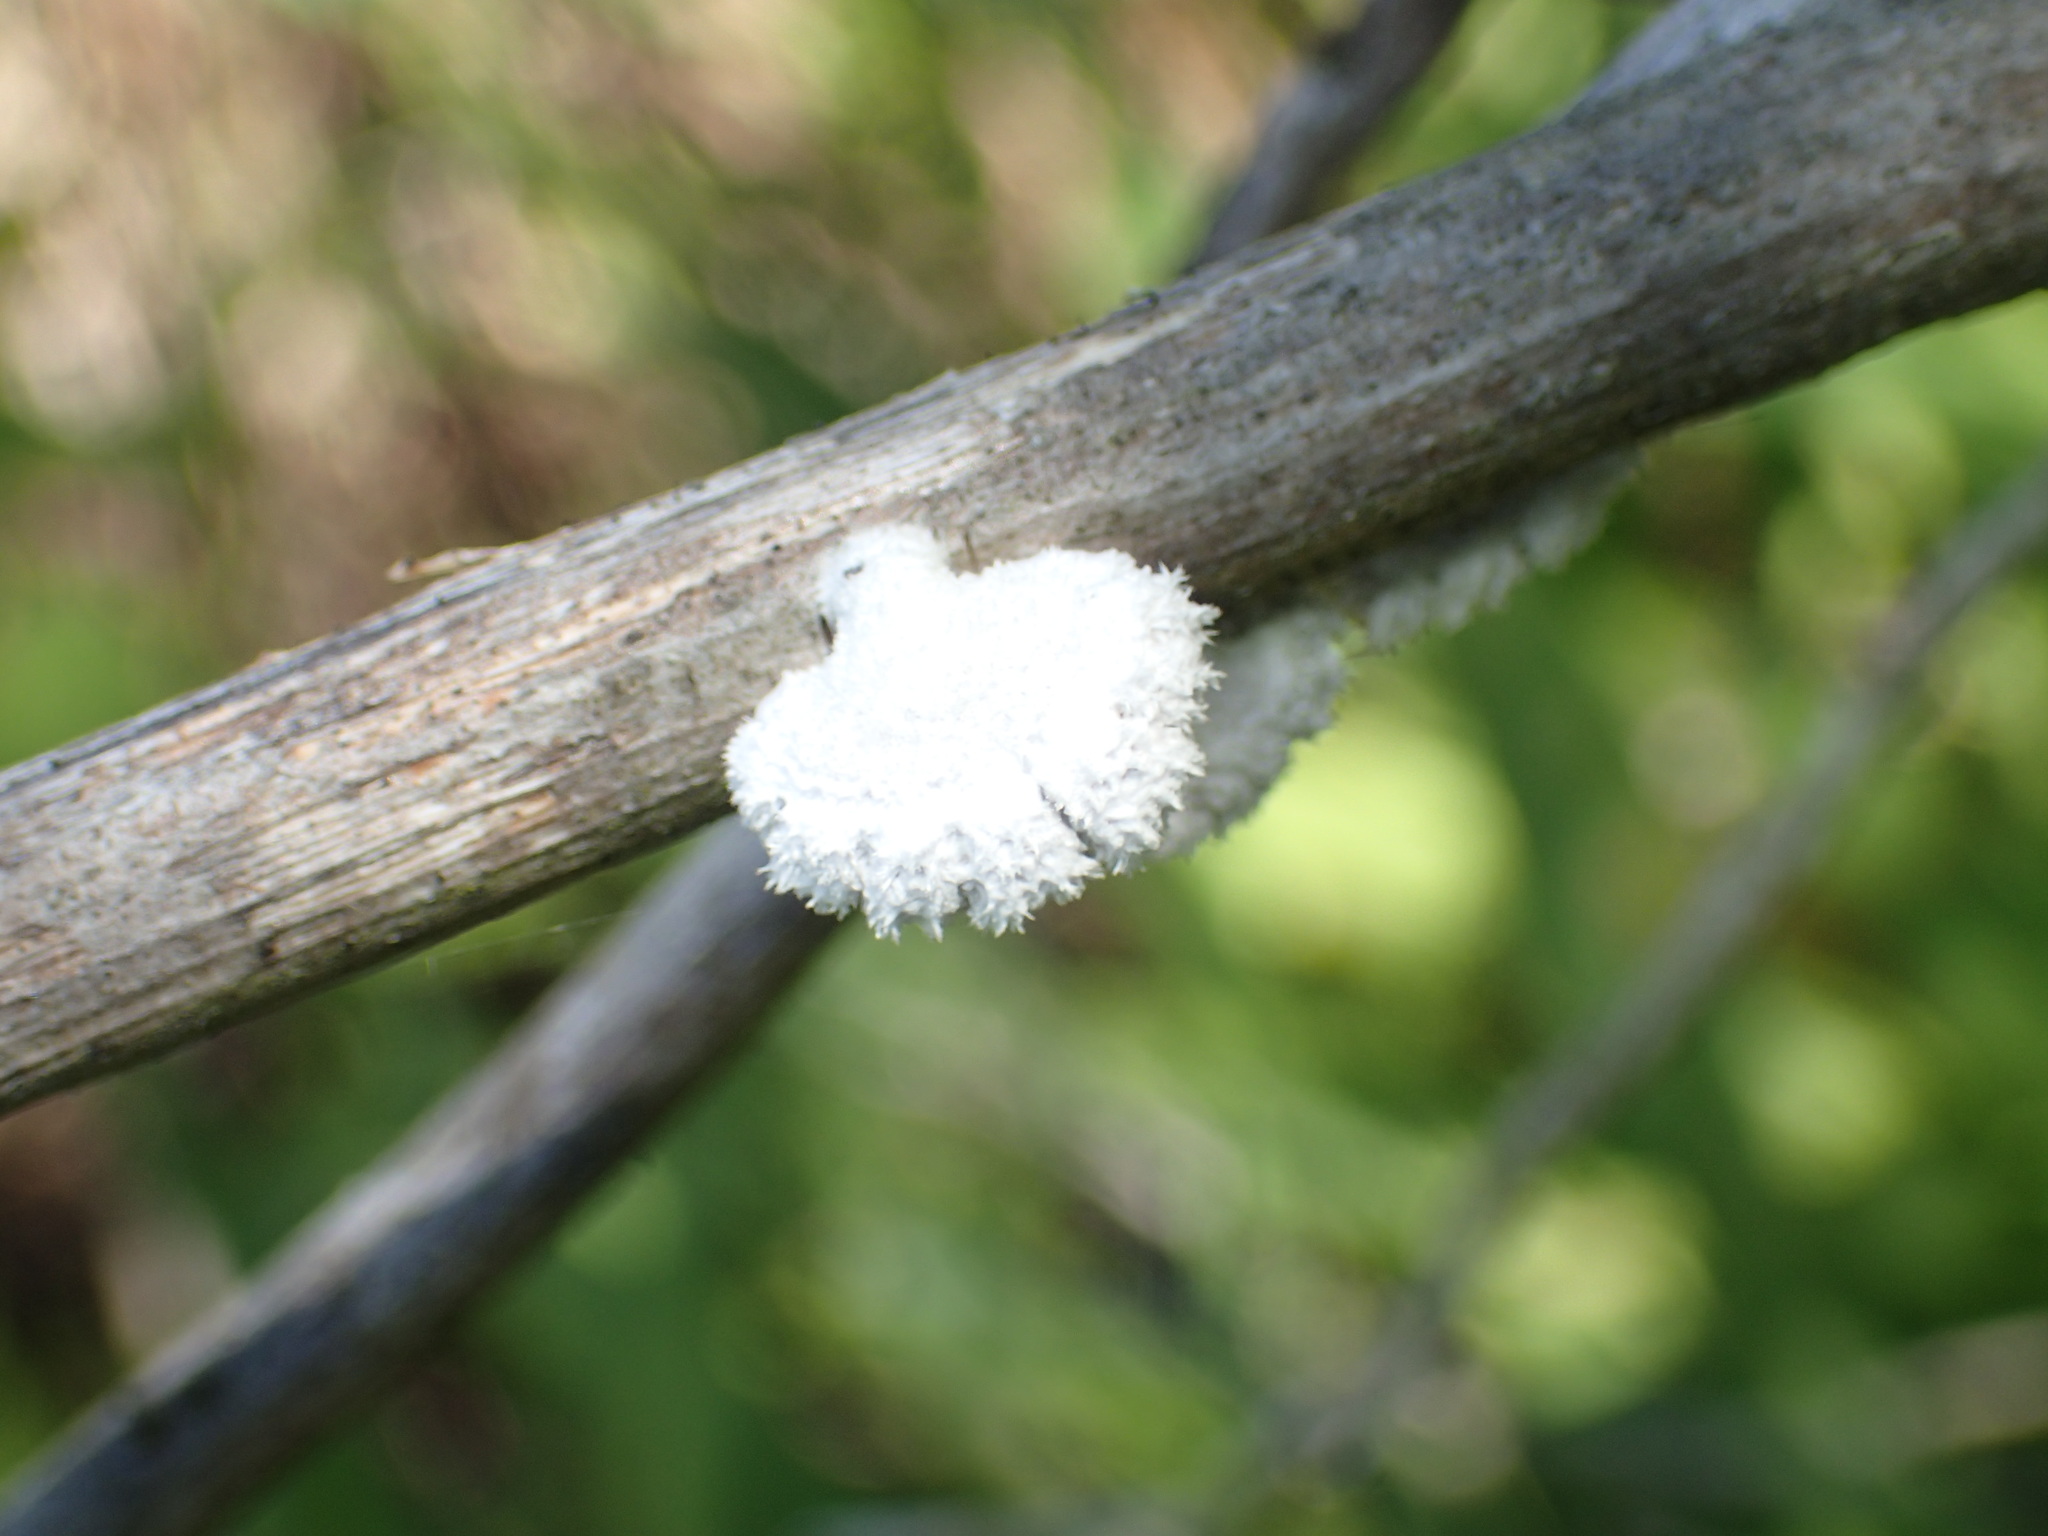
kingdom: Fungi
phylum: Basidiomycota
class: Agaricomycetes
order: Agaricales
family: Schizophyllaceae
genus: Schizophyllum
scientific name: Schizophyllum commune
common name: Common porecrust
